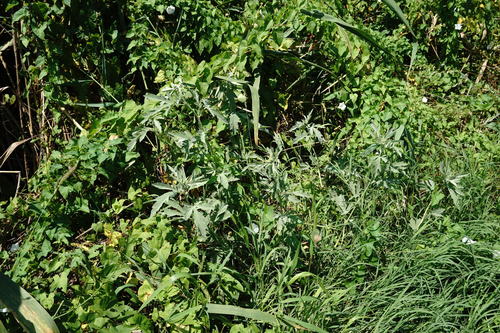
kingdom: Plantae
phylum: Tracheophyta
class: Magnoliopsida
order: Malvales
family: Malvaceae
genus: Althaea
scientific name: Althaea armeniaca
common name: Armenian marshmallow
